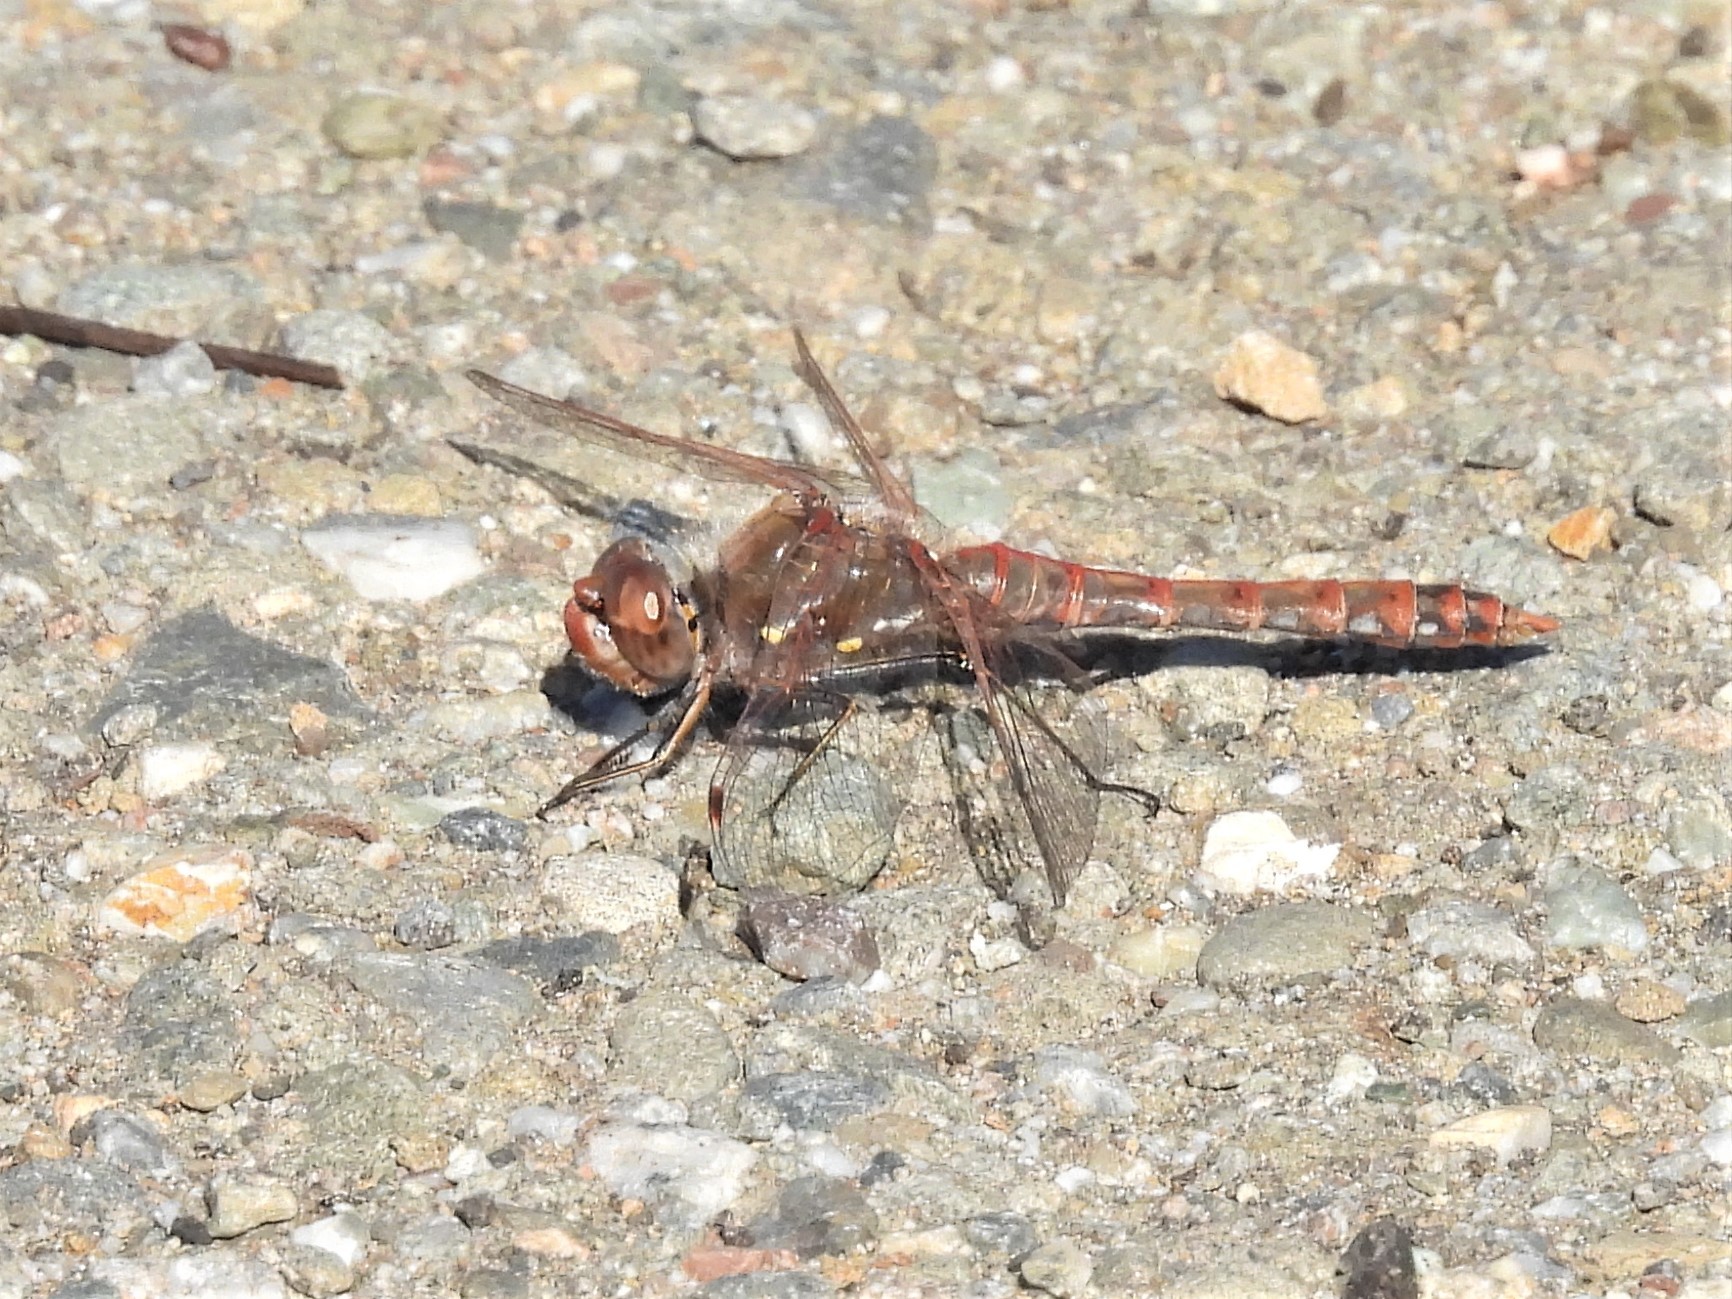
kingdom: Animalia
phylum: Arthropoda
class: Insecta
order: Odonata
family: Libellulidae
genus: Sympetrum
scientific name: Sympetrum corruptum
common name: Variegated meadowhawk
